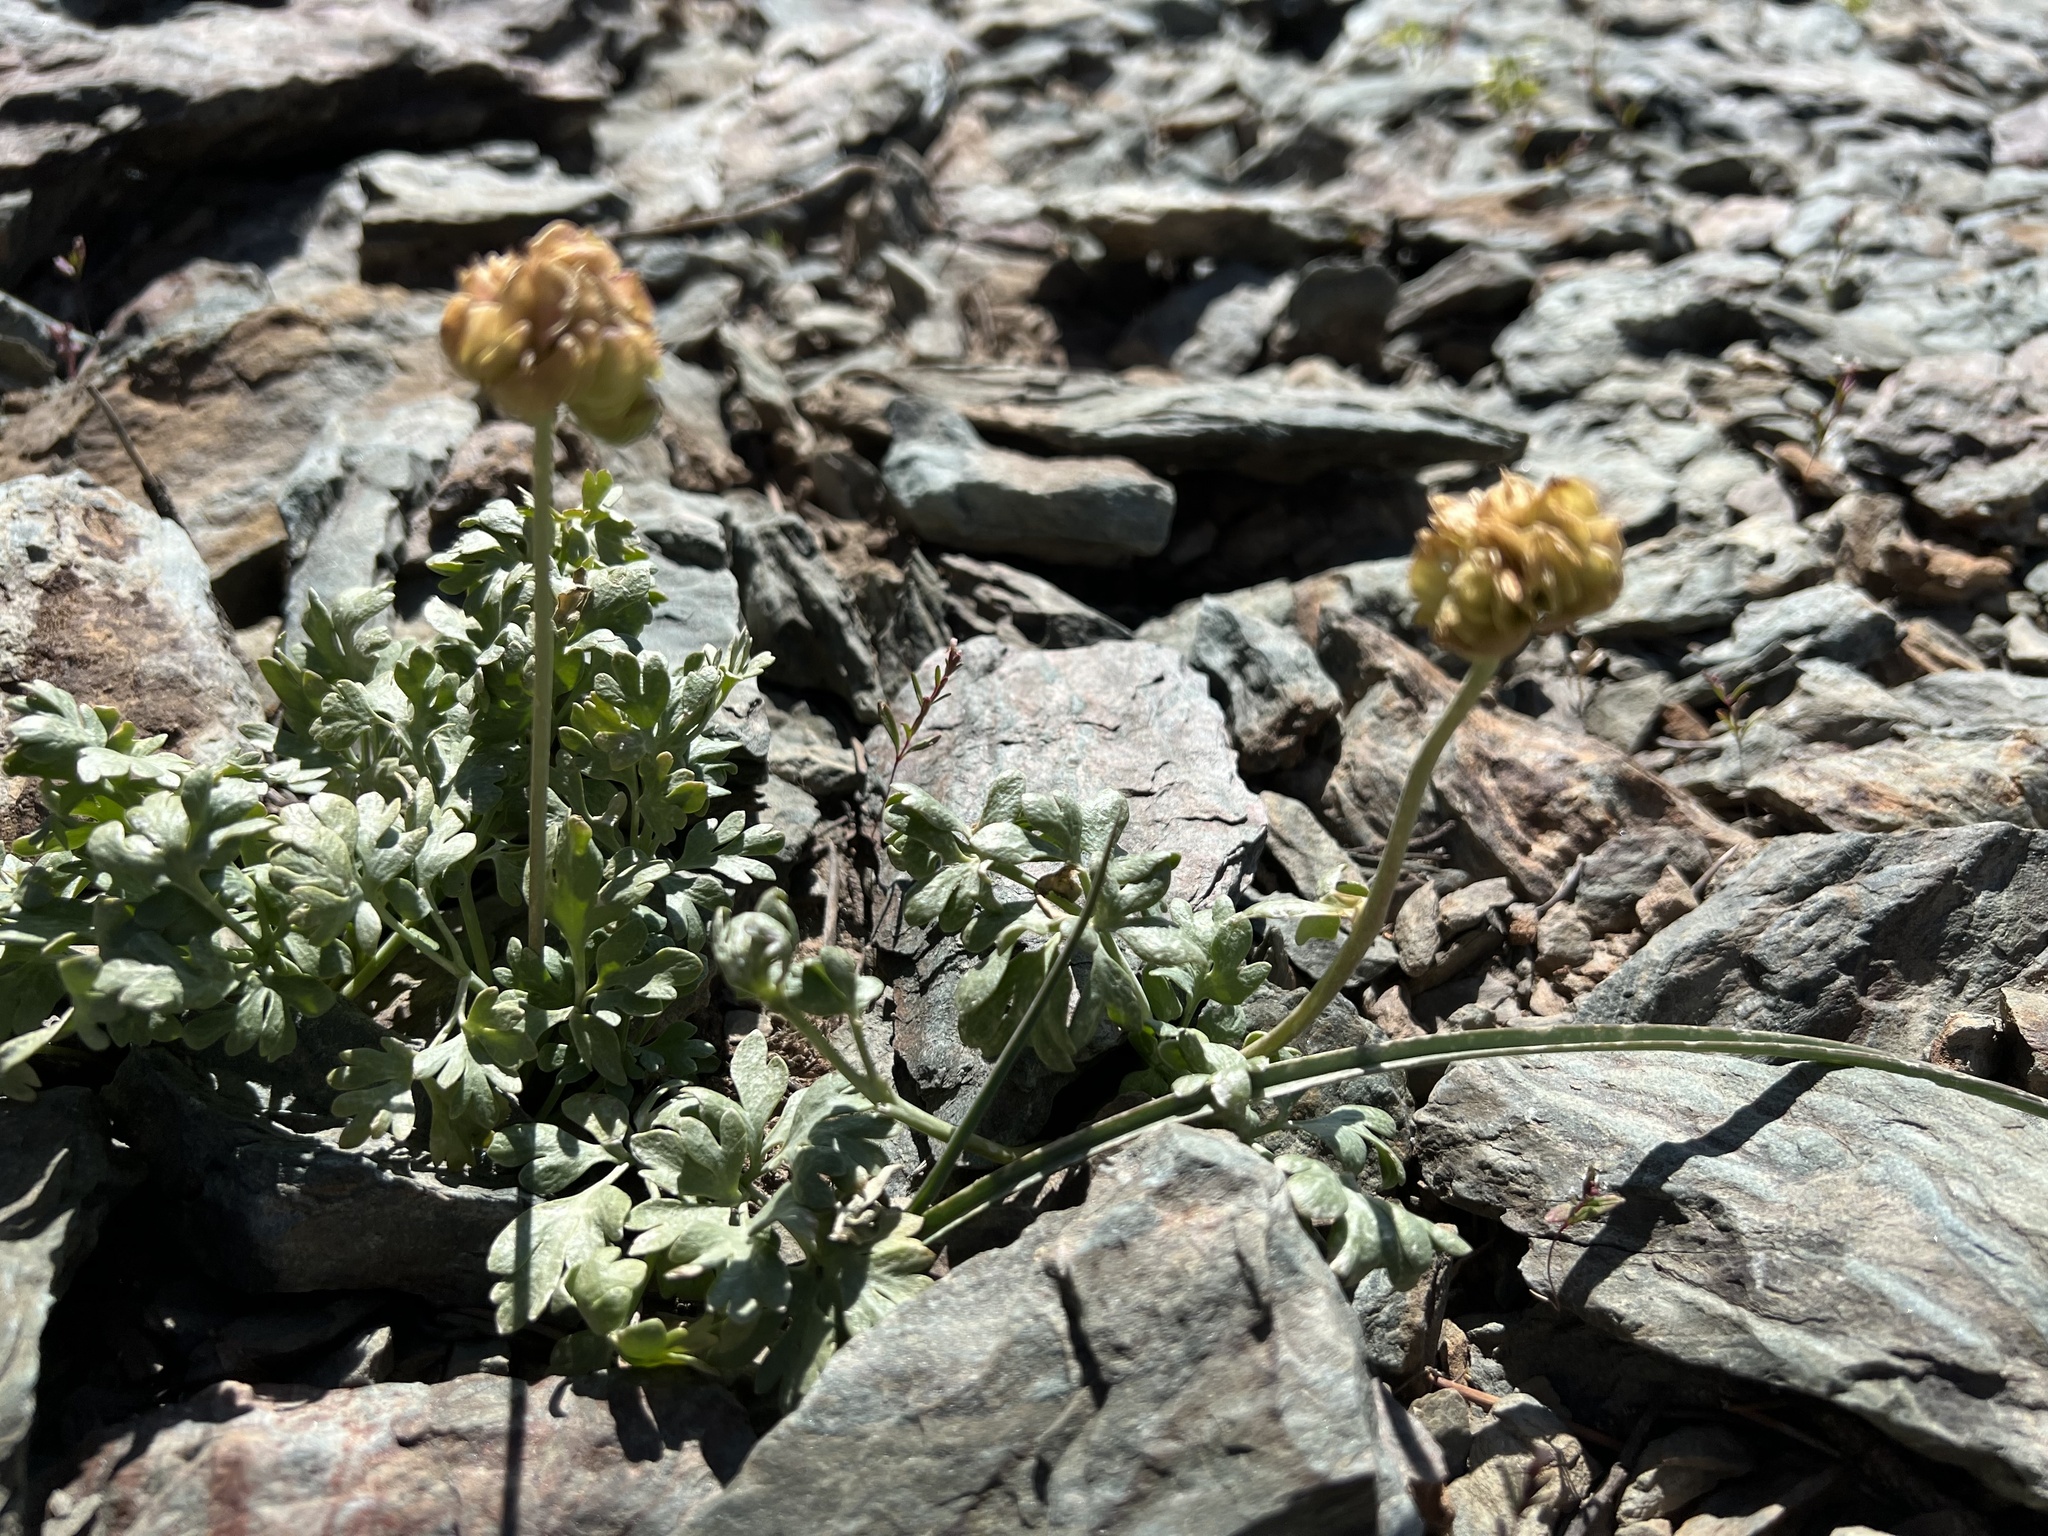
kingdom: Plantae
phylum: Tracheophyta
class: Magnoliopsida
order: Ranunculales
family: Ranunculaceae
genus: Beckwithia
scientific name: Beckwithia andersonii
